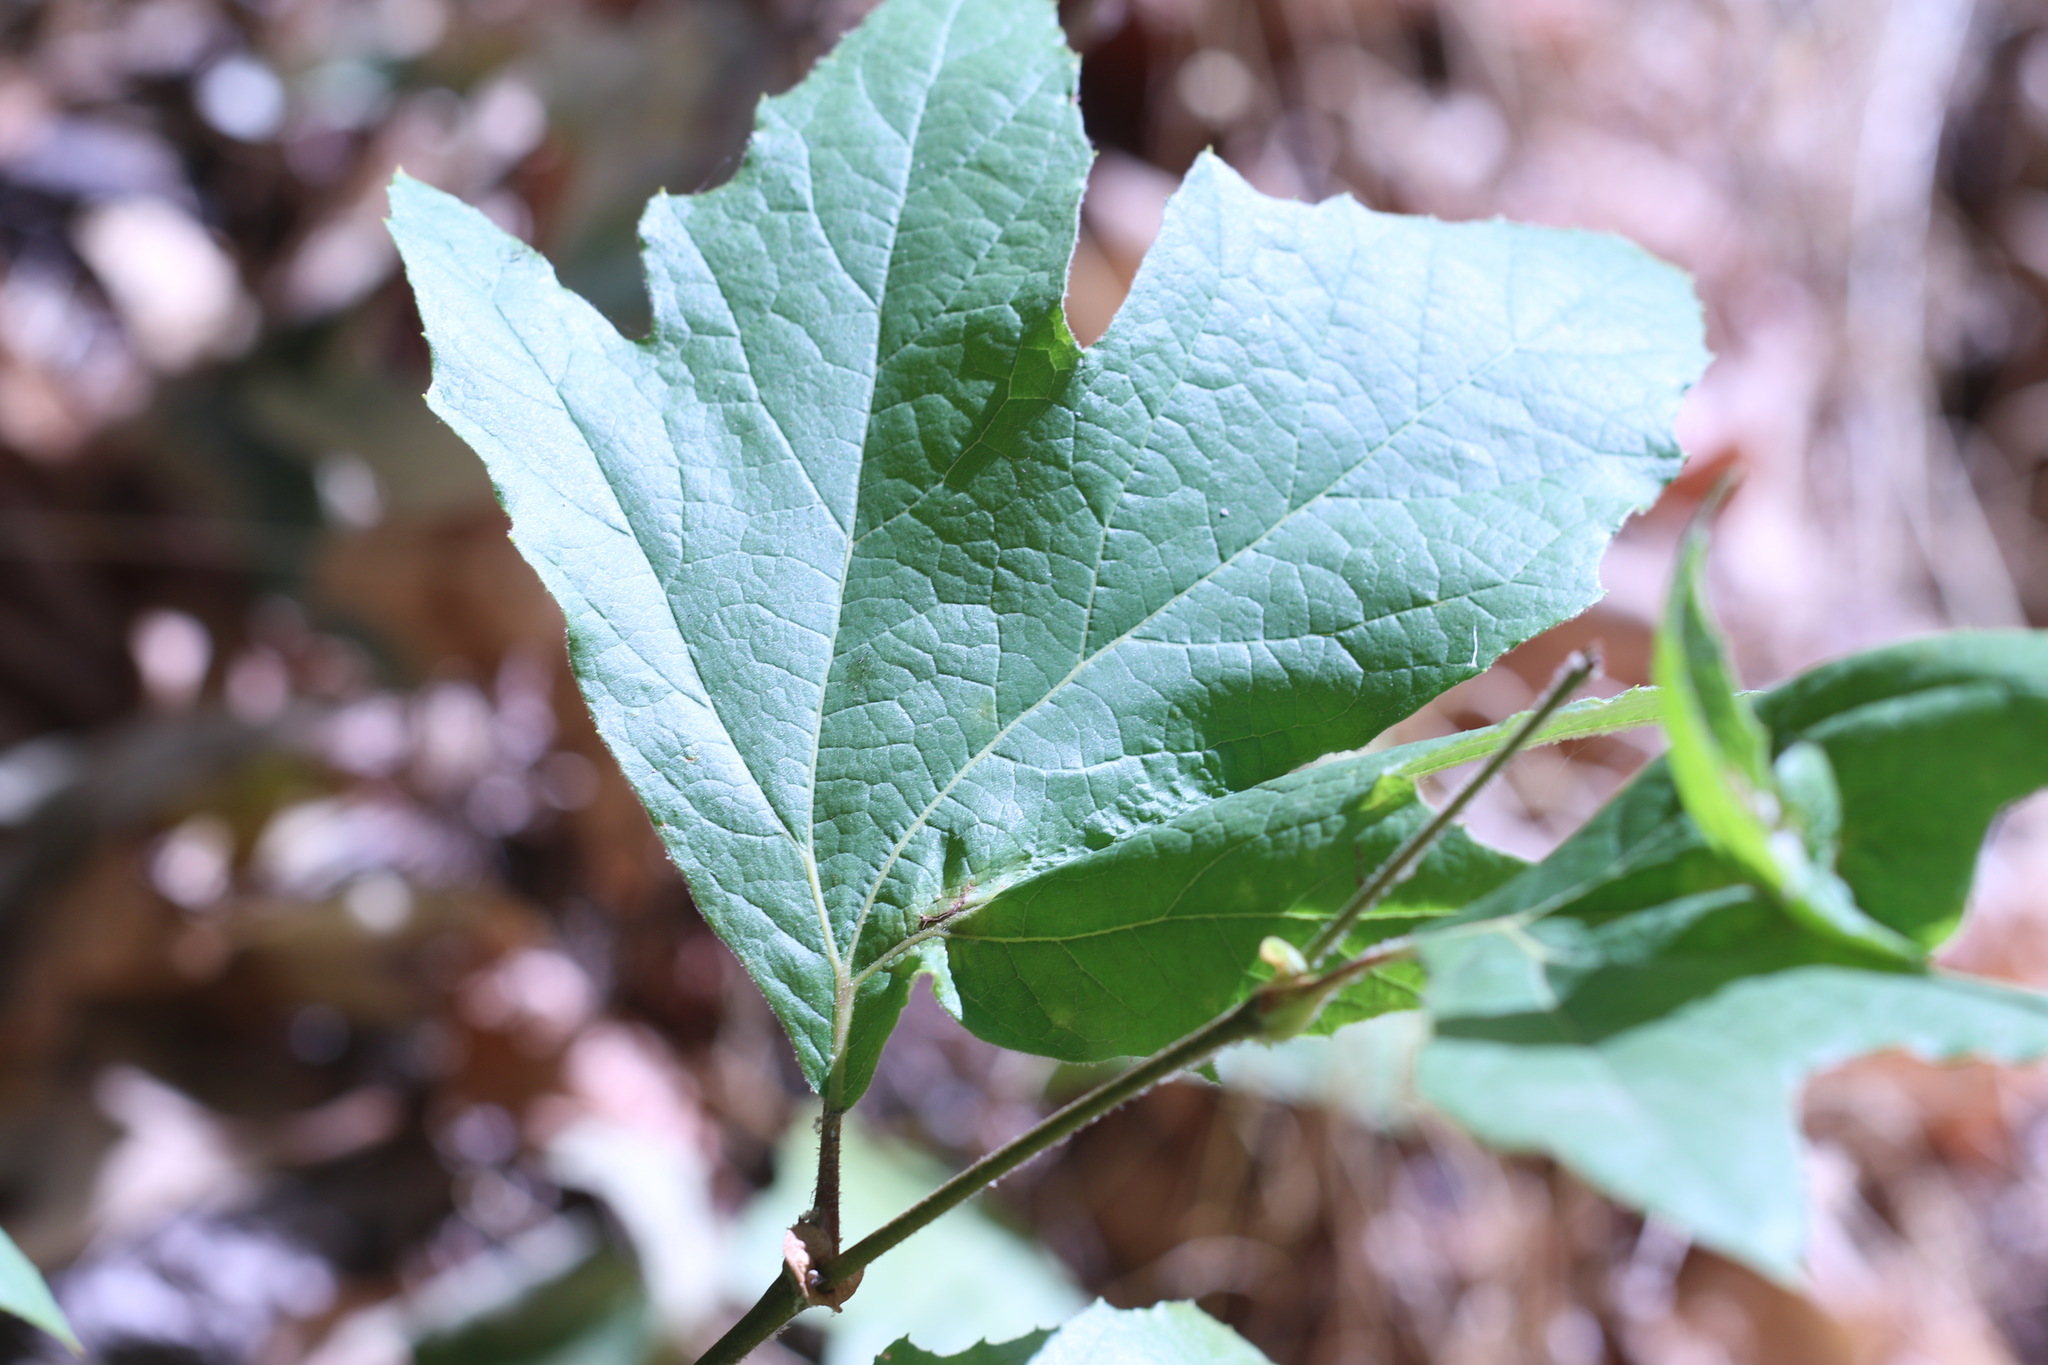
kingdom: Plantae
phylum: Tracheophyta
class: Magnoliopsida
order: Proteales
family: Platanaceae
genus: Platanus
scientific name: Platanus racemosa
